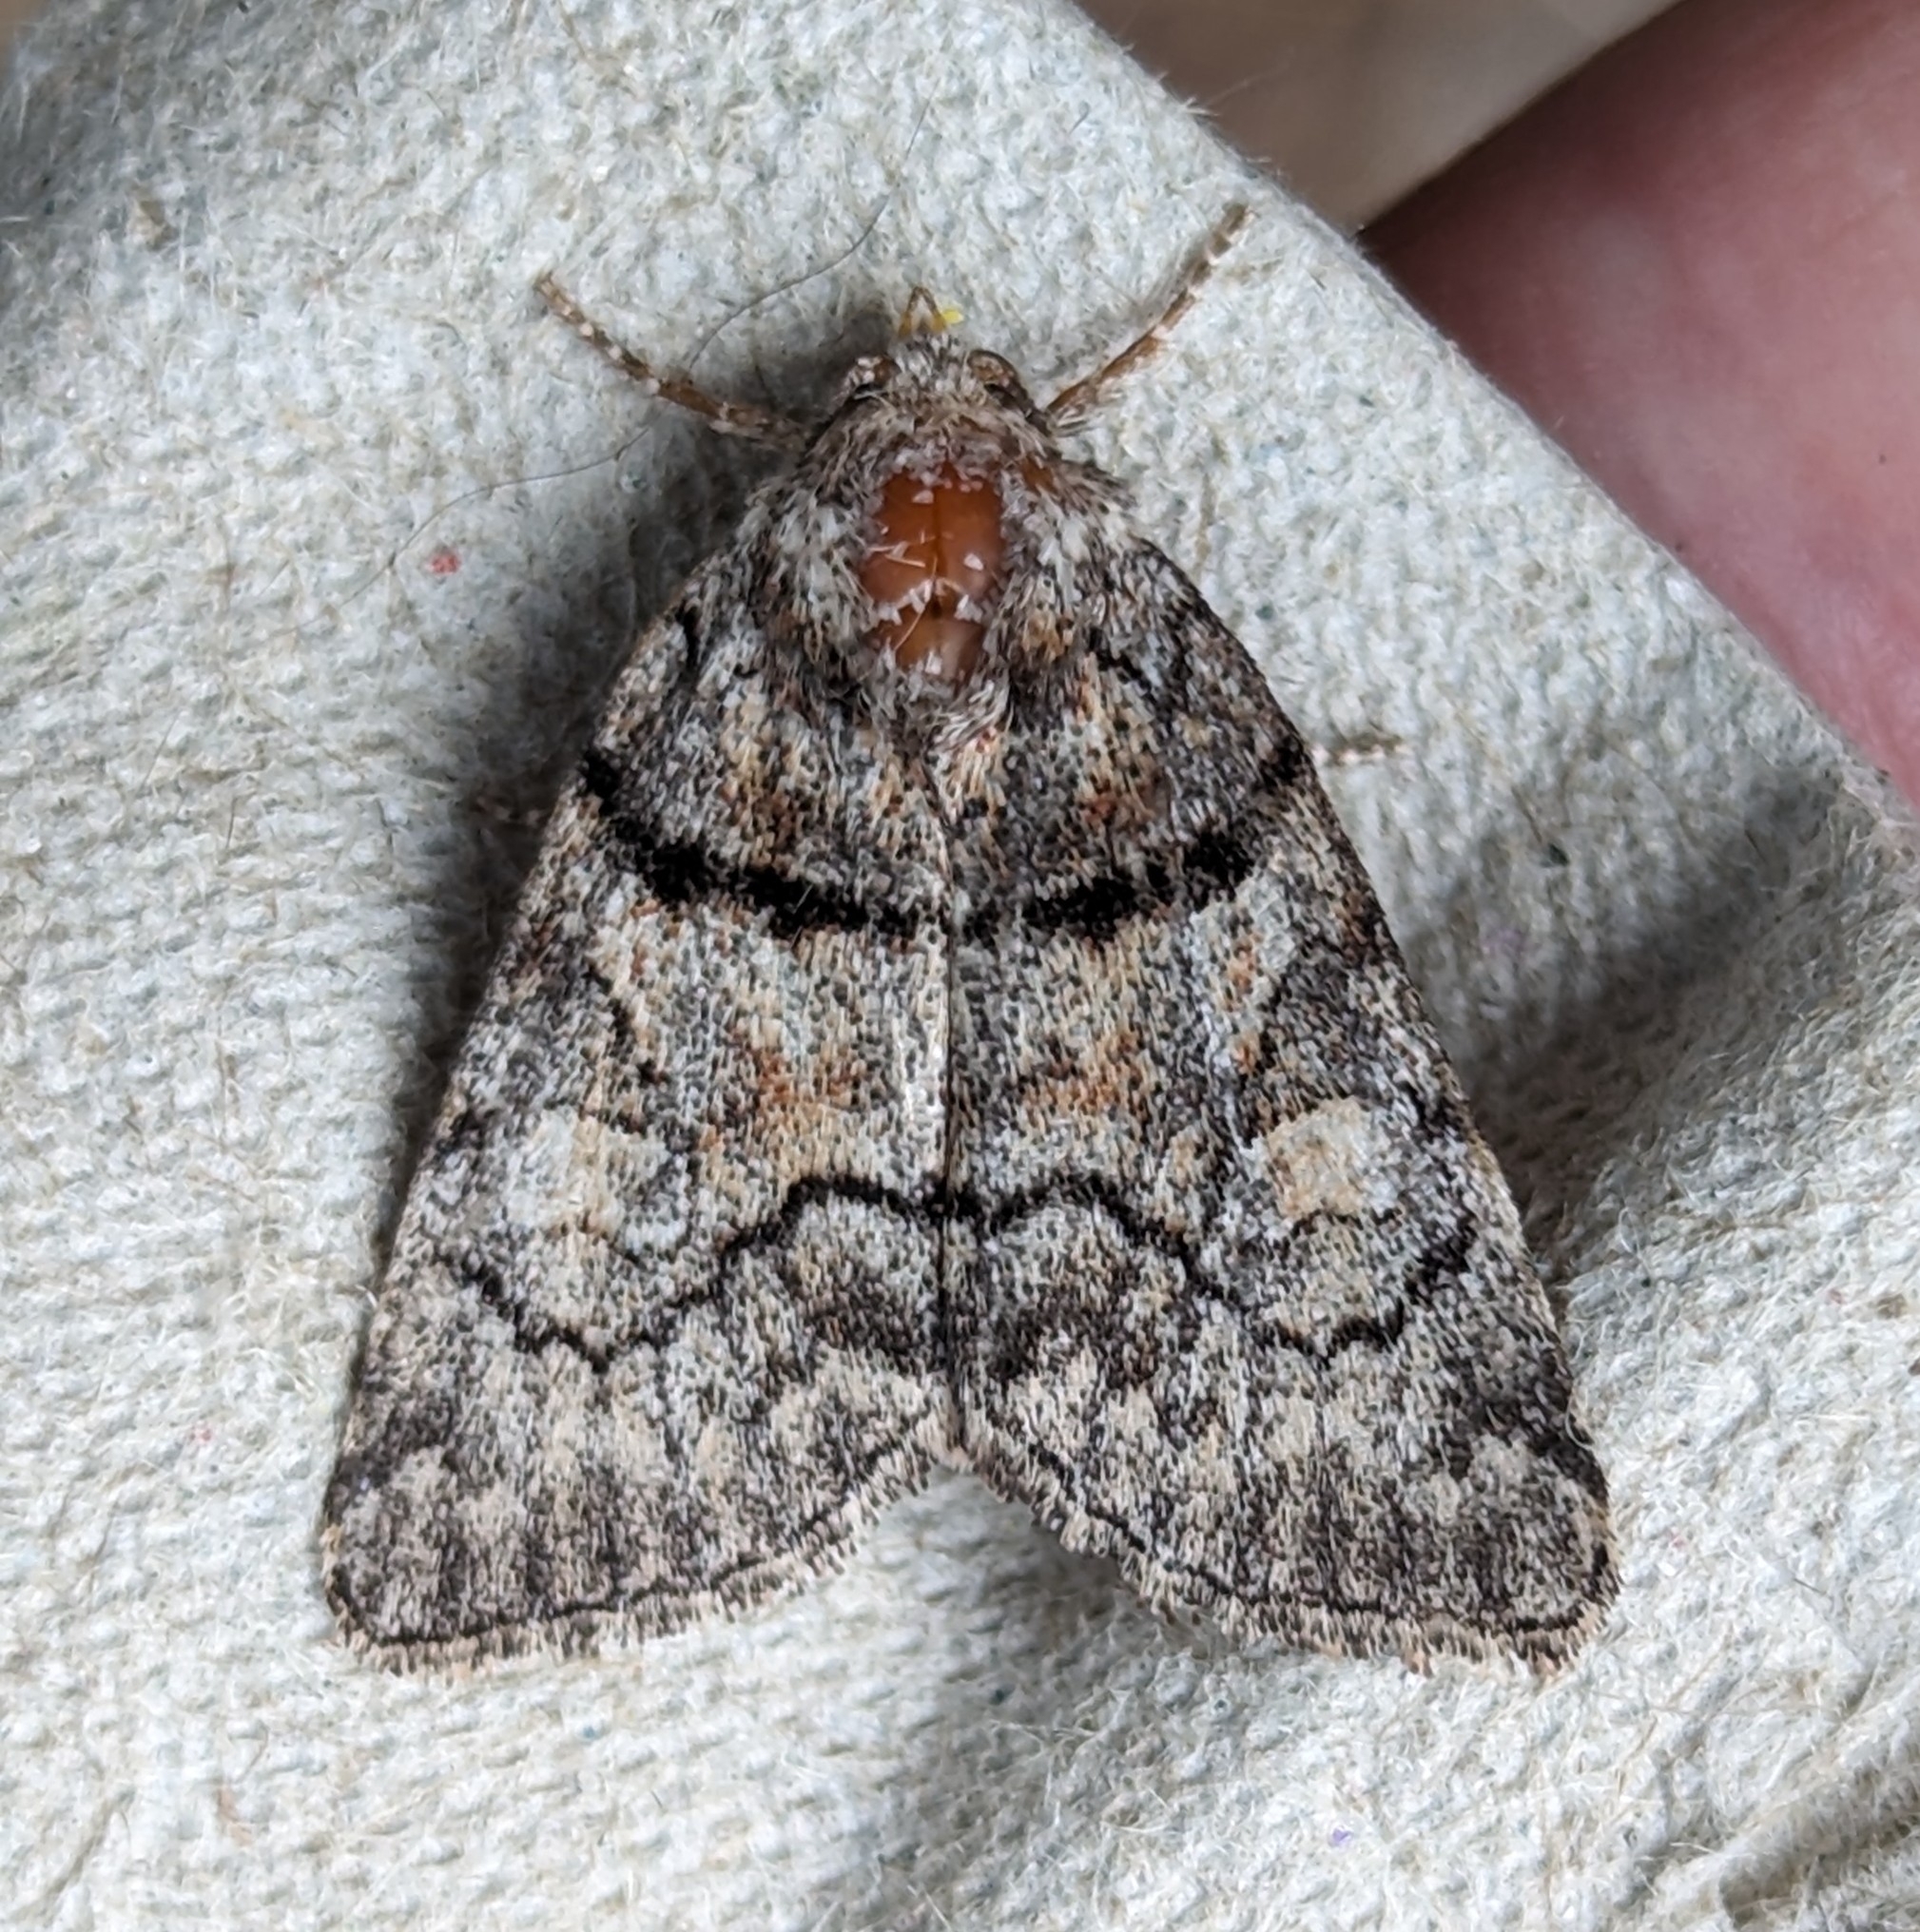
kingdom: Animalia
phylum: Arthropoda
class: Insecta
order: Lepidoptera
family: Noctuidae
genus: Cosmia
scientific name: Cosmia praeacuta
